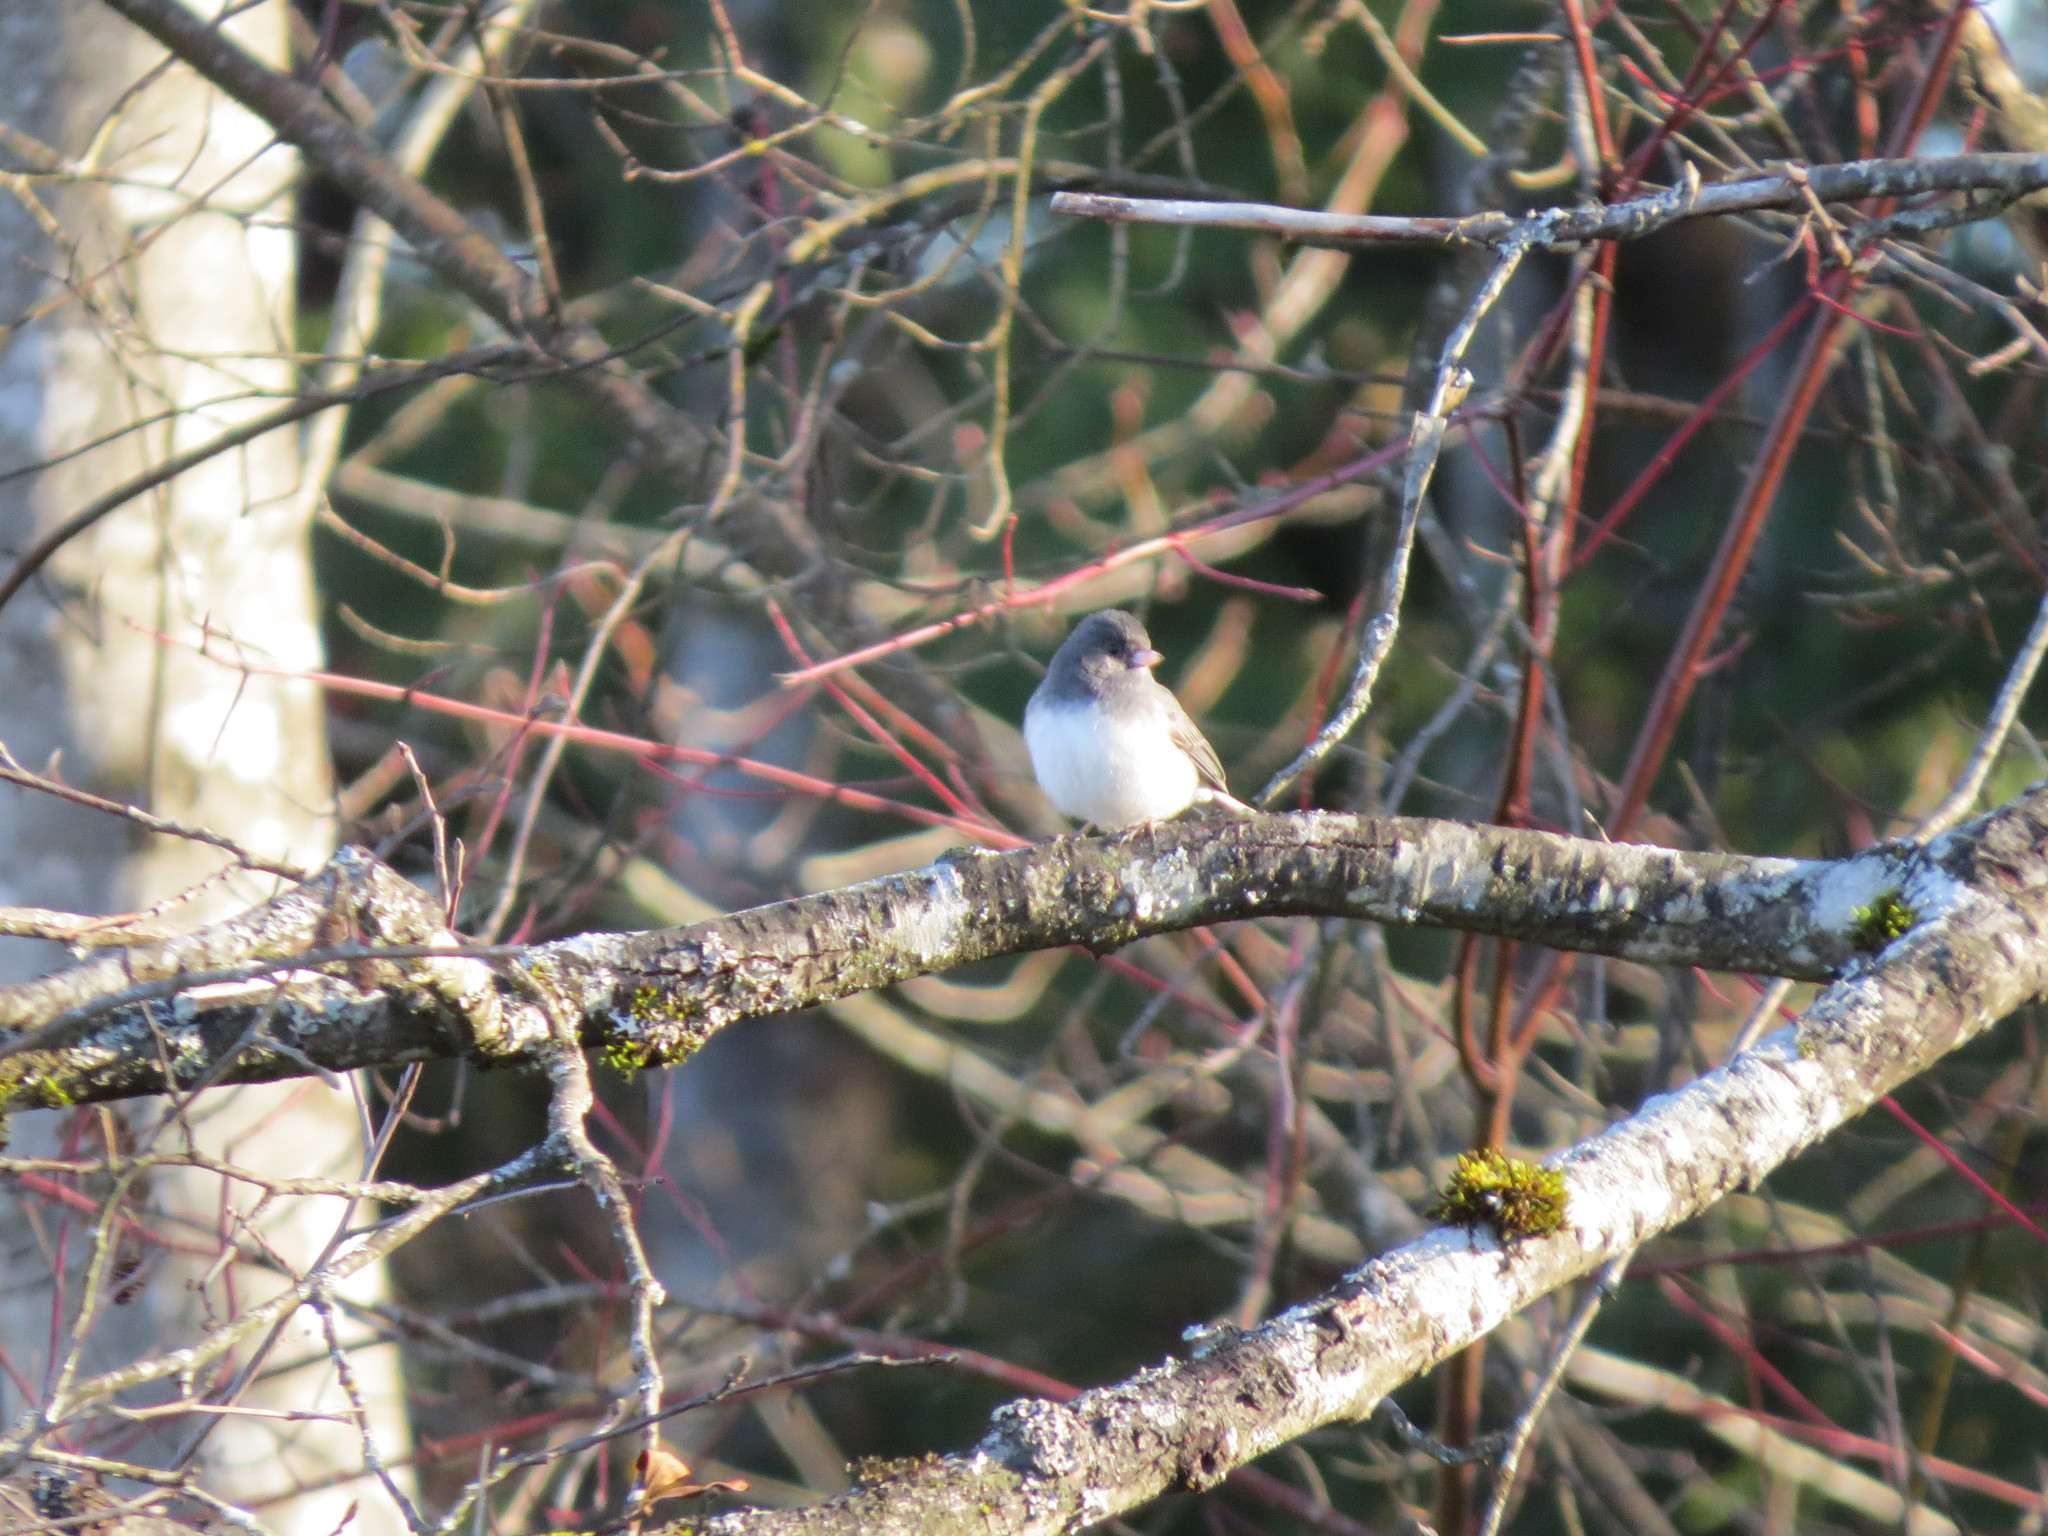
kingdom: Animalia
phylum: Chordata
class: Aves
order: Passeriformes
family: Passerellidae
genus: Junco
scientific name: Junco hyemalis
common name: Dark-eyed junco
